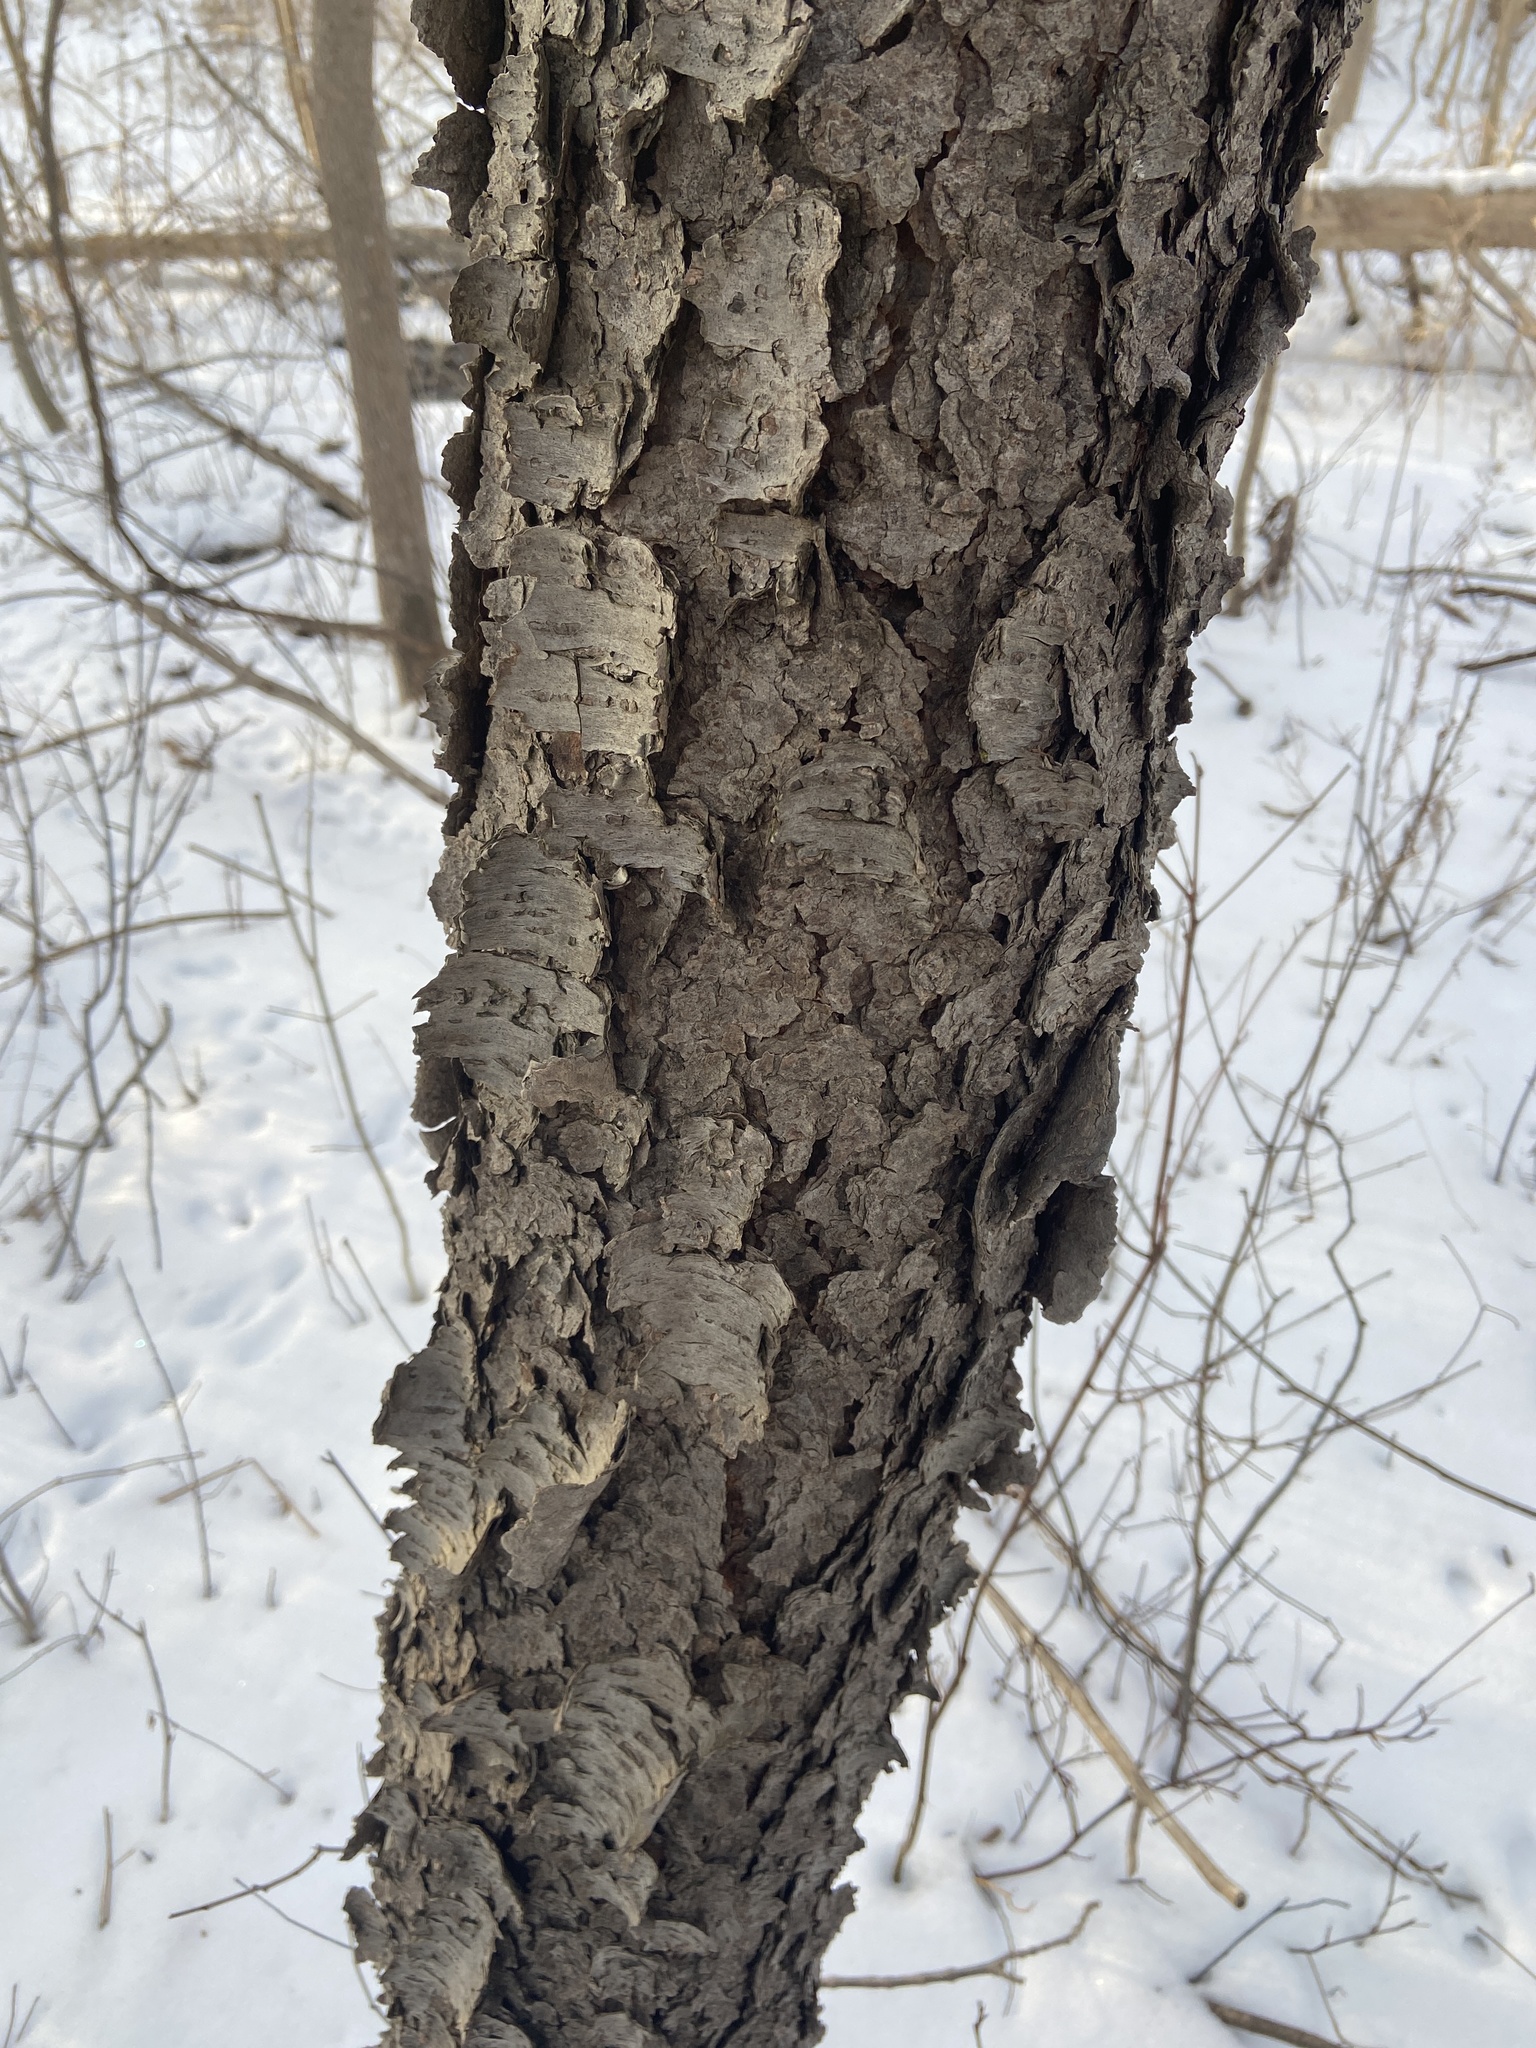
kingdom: Plantae
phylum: Tracheophyta
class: Magnoliopsida
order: Rosales
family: Rosaceae
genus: Prunus
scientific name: Prunus serotina
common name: Black cherry
